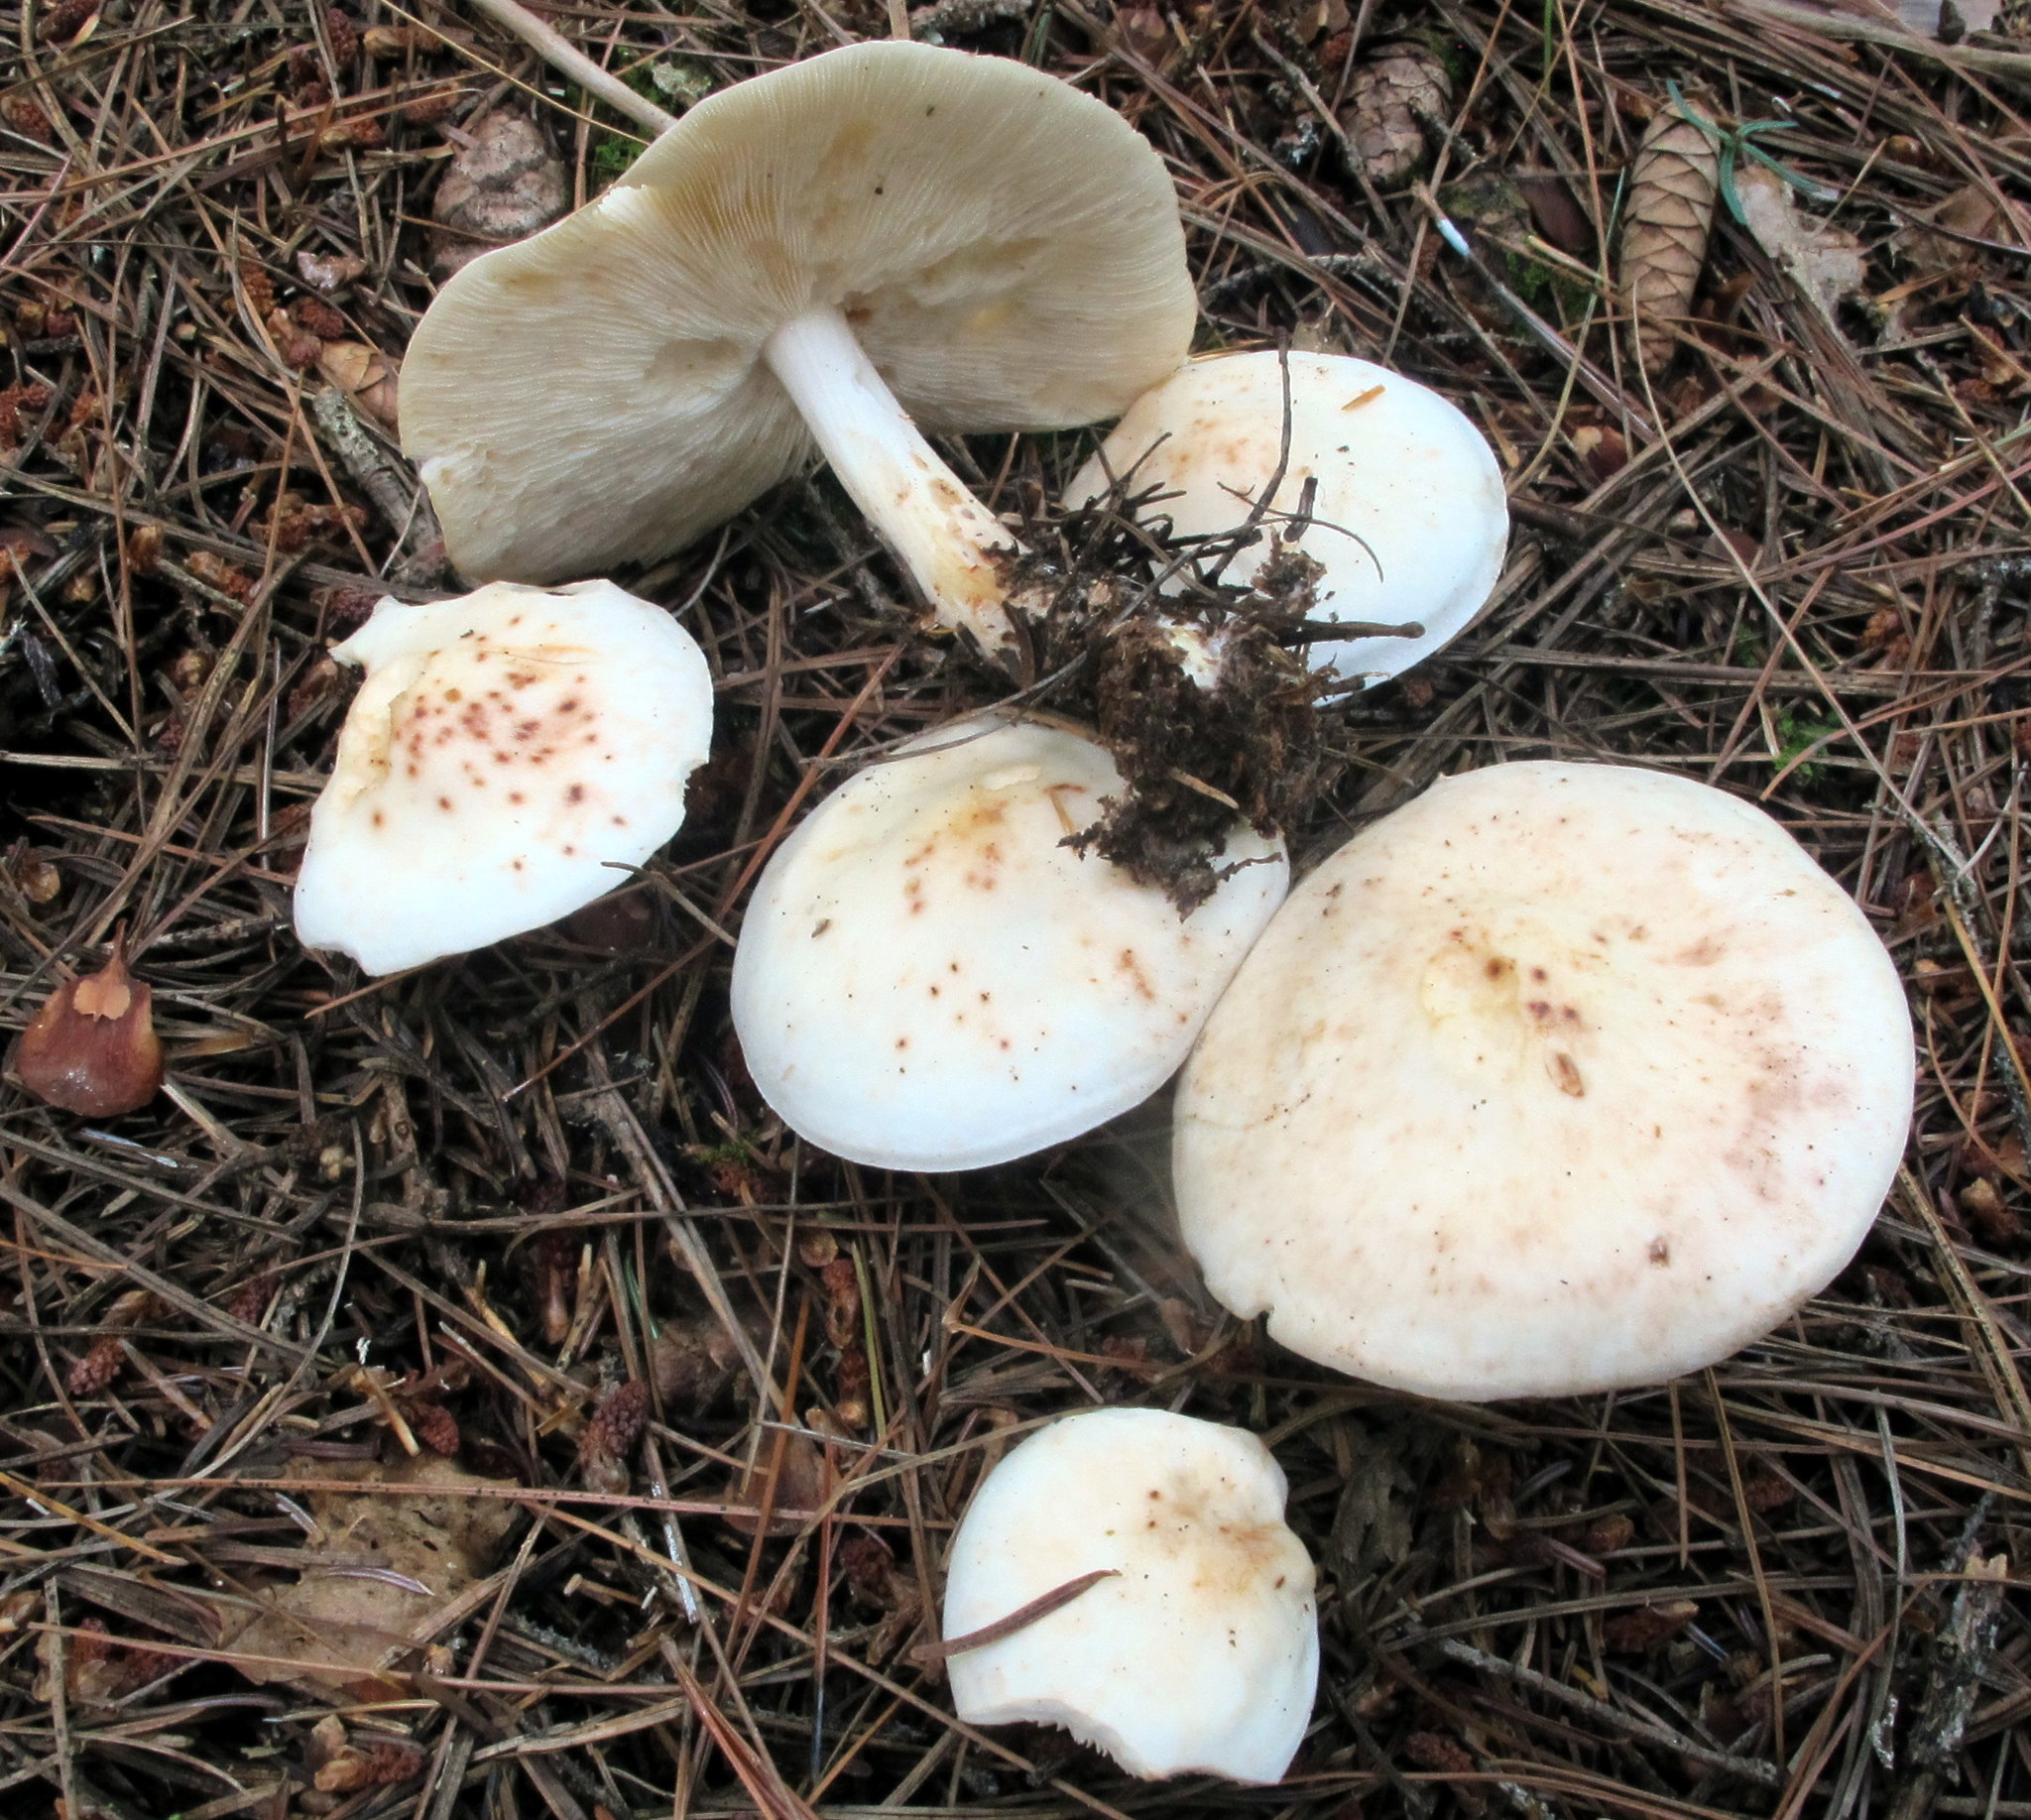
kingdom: Fungi
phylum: Basidiomycota
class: Agaricomycetes
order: Agaricales
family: Omphalotaceae
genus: Rhodocollybia
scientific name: Rhodocollybia maculata
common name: Spotted tough-shank
